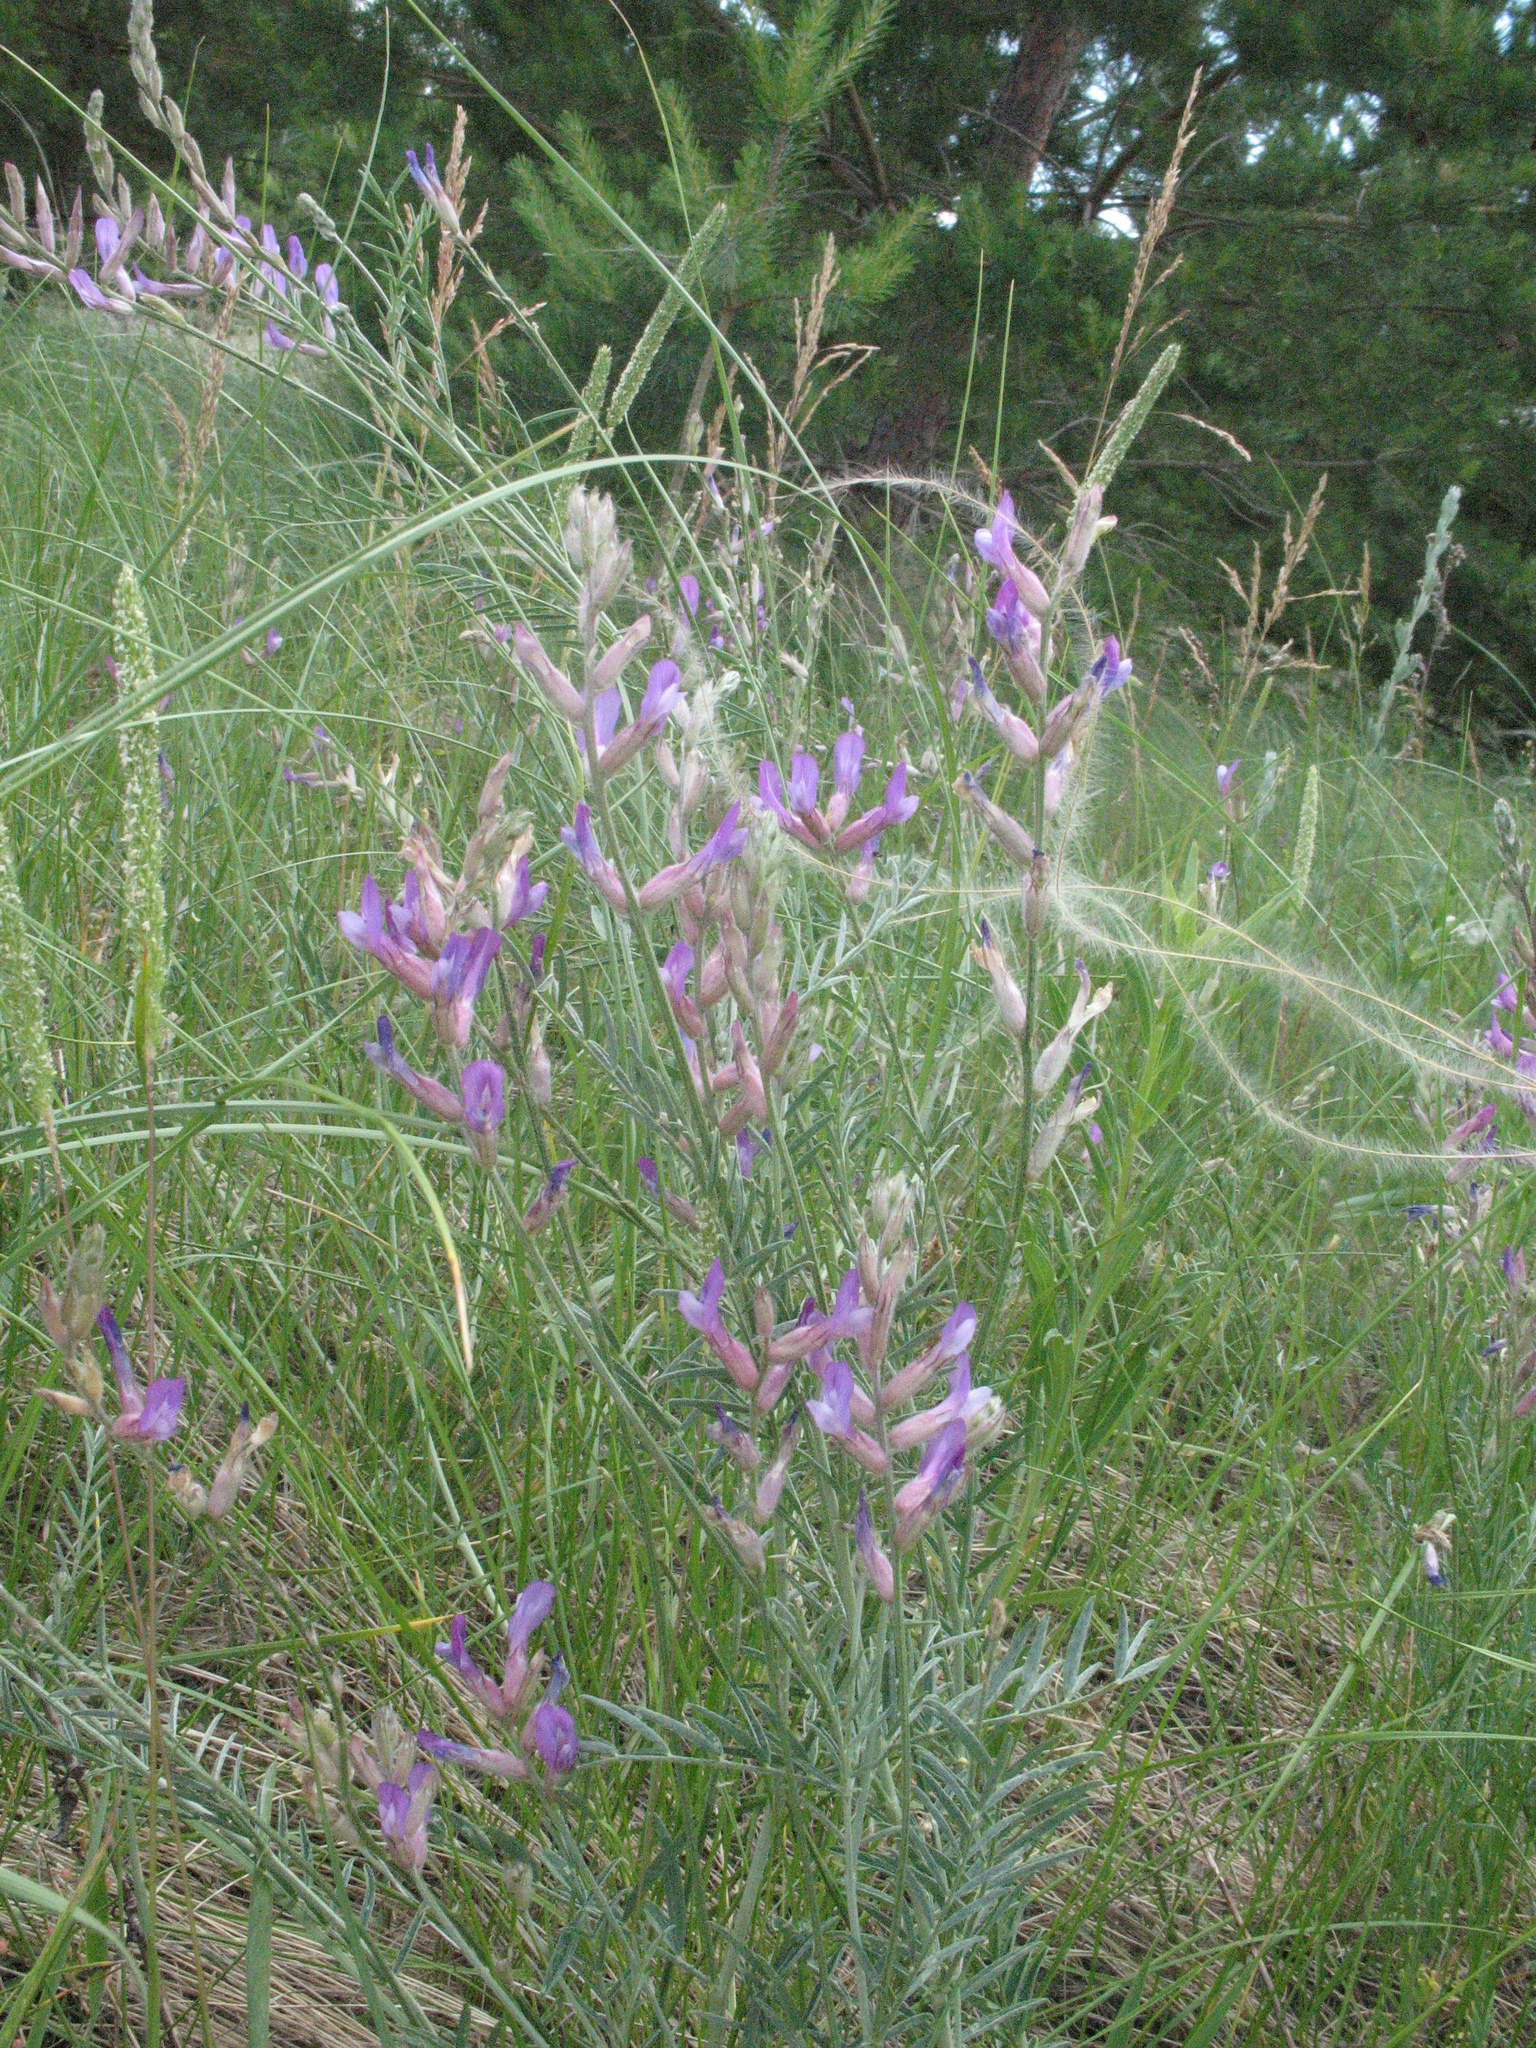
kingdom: Plantae
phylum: Tracheophyta
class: Magnoliopsida
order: Fabales
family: Fabaceae
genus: Astragalus
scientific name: Astragalus varius
